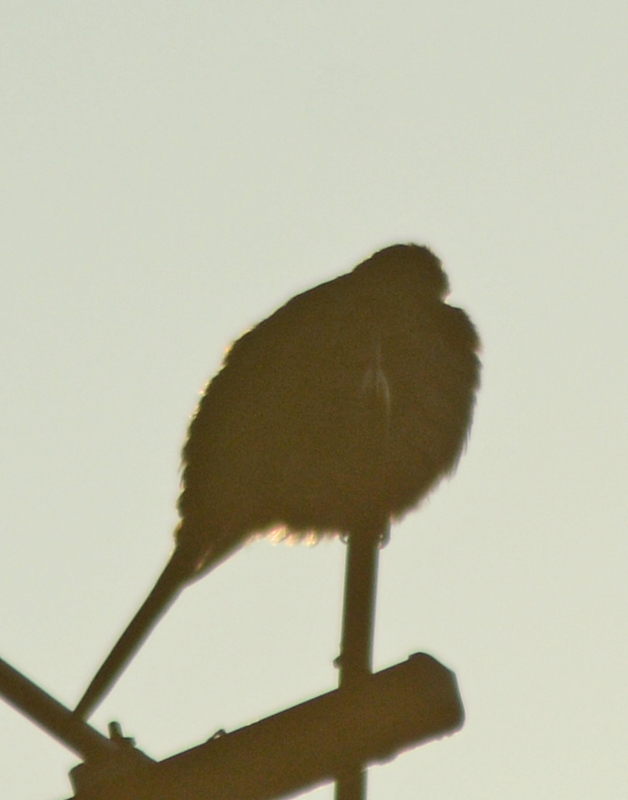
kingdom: Animalia
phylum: Chordata
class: Aves
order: Columbiformes
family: Columbidae
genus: Columbina
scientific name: Columbina inca
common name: Inca dove
